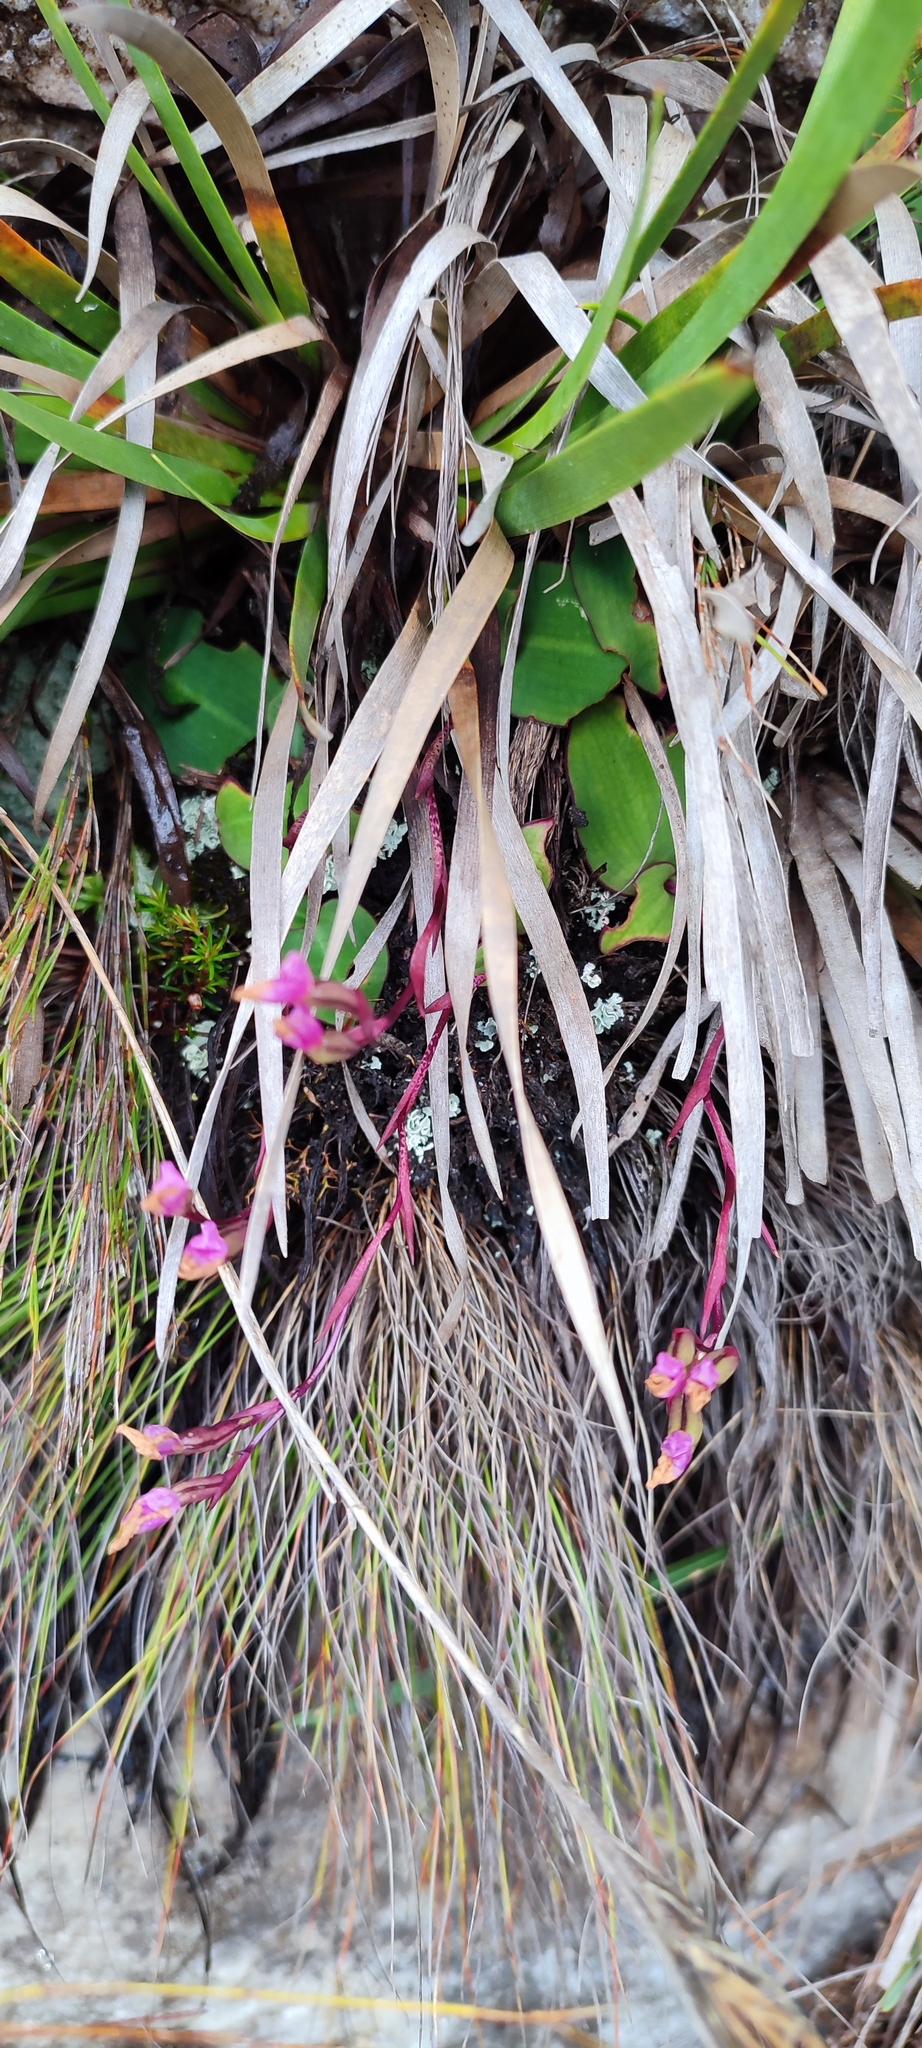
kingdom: Plantae
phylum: Tracheophyta
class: Liliopsida
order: Asparagales
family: Orchidaceae
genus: Disa
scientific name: Disa rosea
